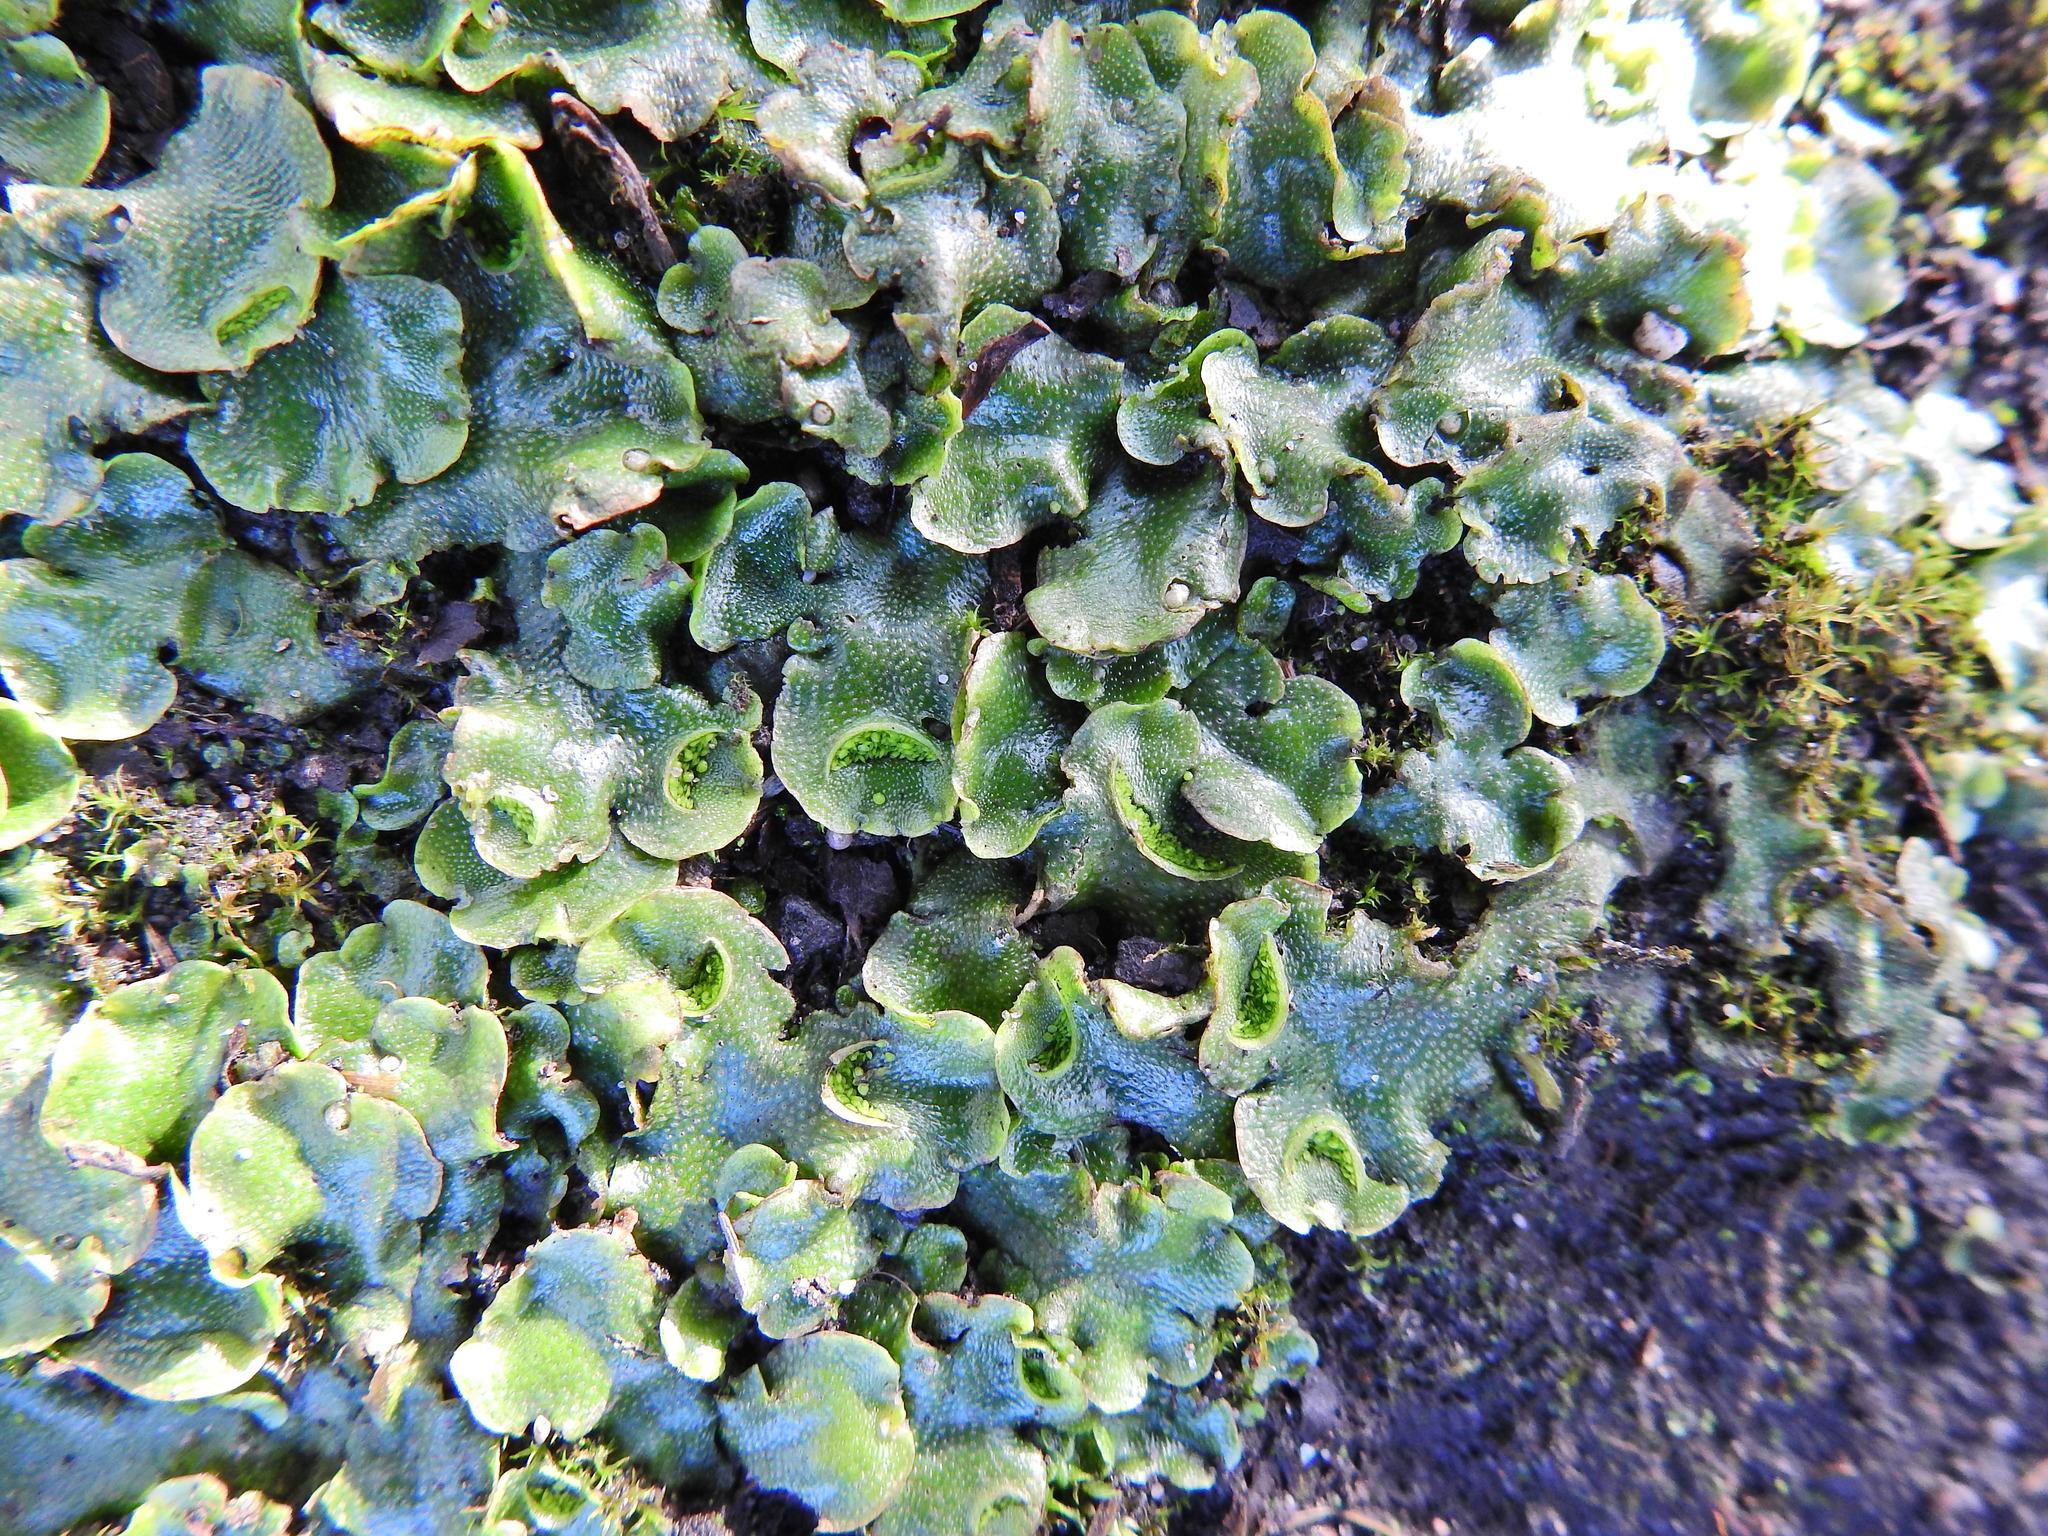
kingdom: Plantae
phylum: Marchantiophyta
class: Marchantiopsida
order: Lunulariales
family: Lunulariaceae
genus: Lunularia
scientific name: Lunularia cruciata
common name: Crescent-cup liverwort
